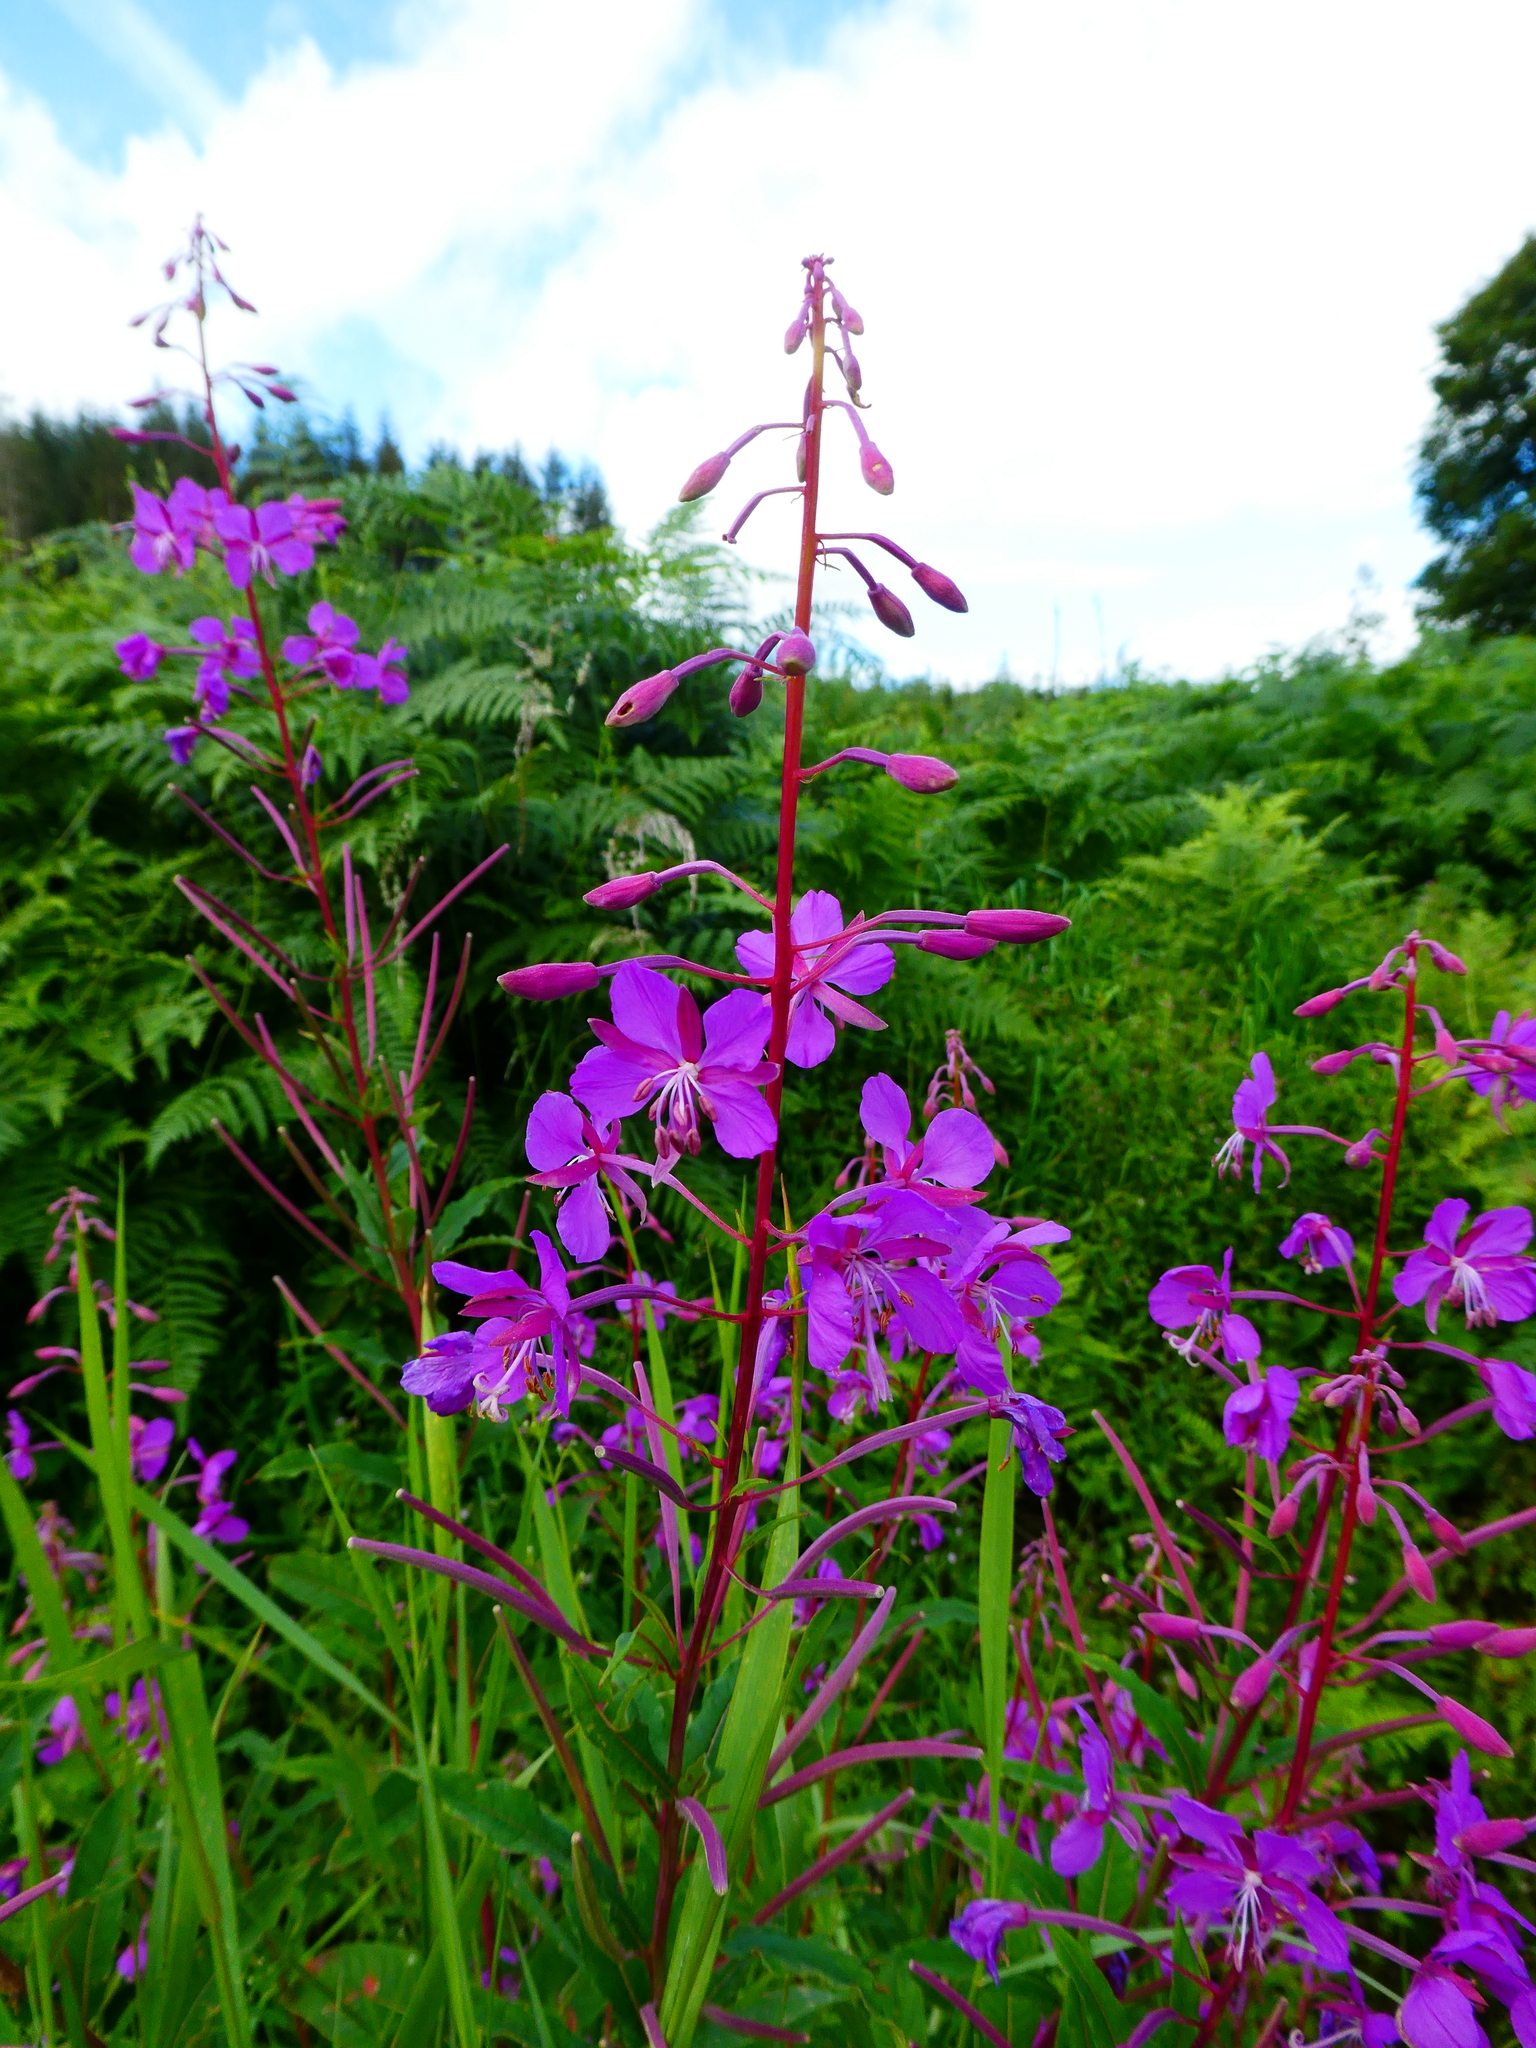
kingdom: Plantae
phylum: Tracheophyta
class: Magnoliopsida
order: Myrtales
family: Onagraceae
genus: Chamaenerion
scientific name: Chamaenerion angustifolium
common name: Fireweed
